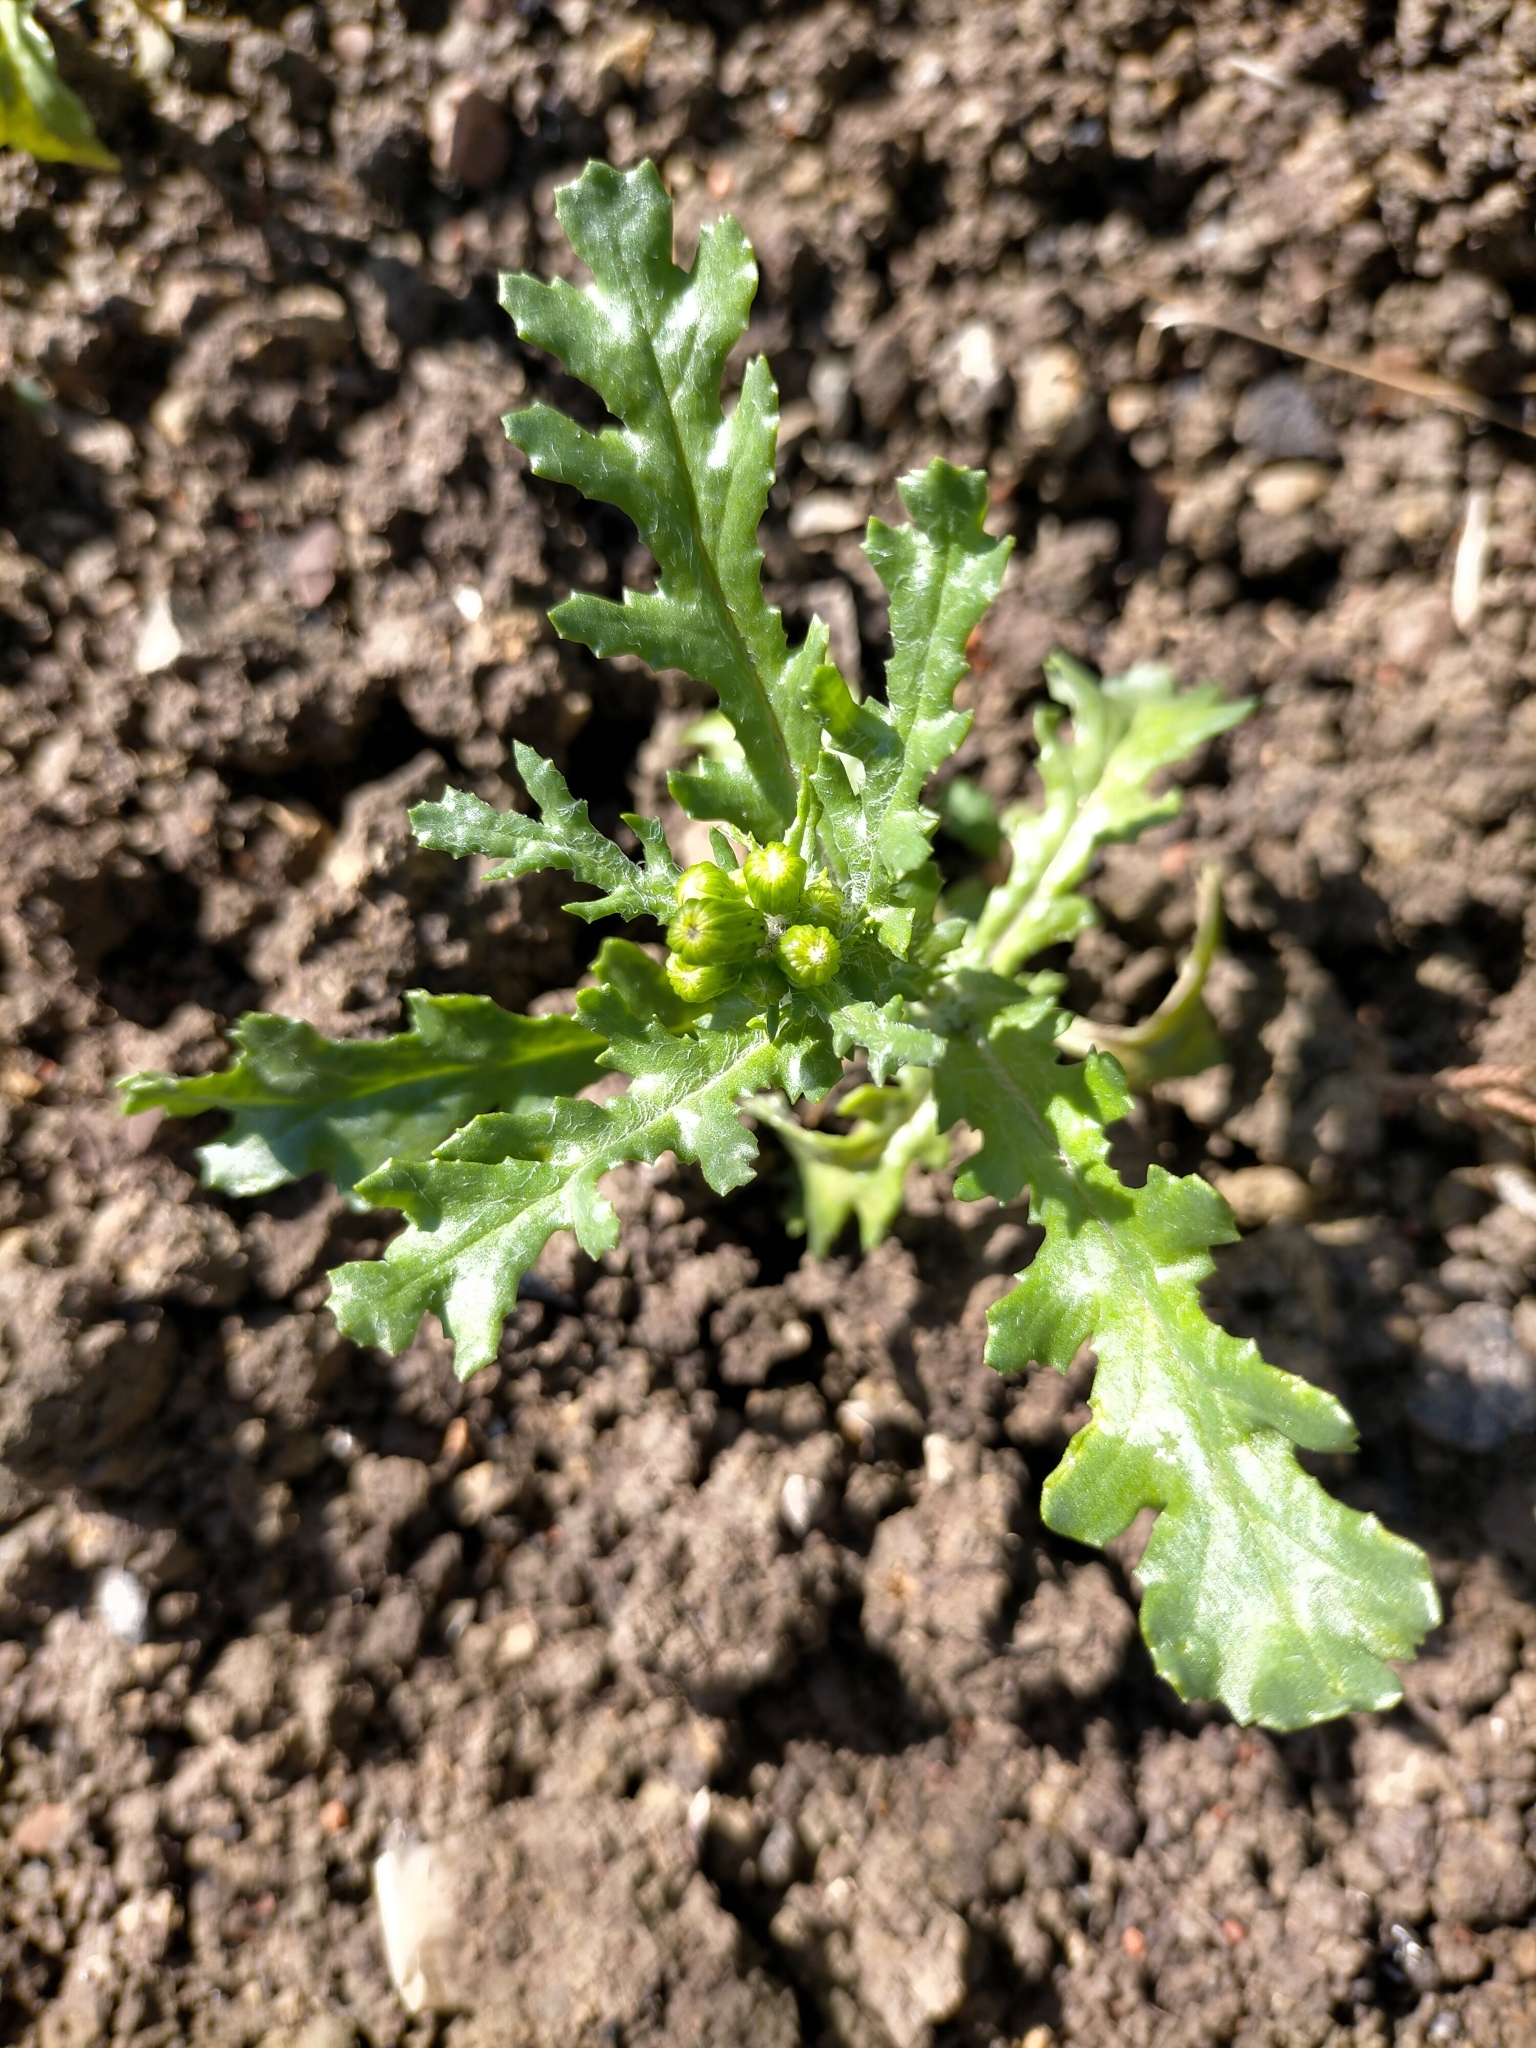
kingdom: Plantae
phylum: Tracheophyta
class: Magnoliopsida
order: Asterales
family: Asteraceae
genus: Senecio
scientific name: Senecio vulgaris
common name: Old-man-in-the-spring
